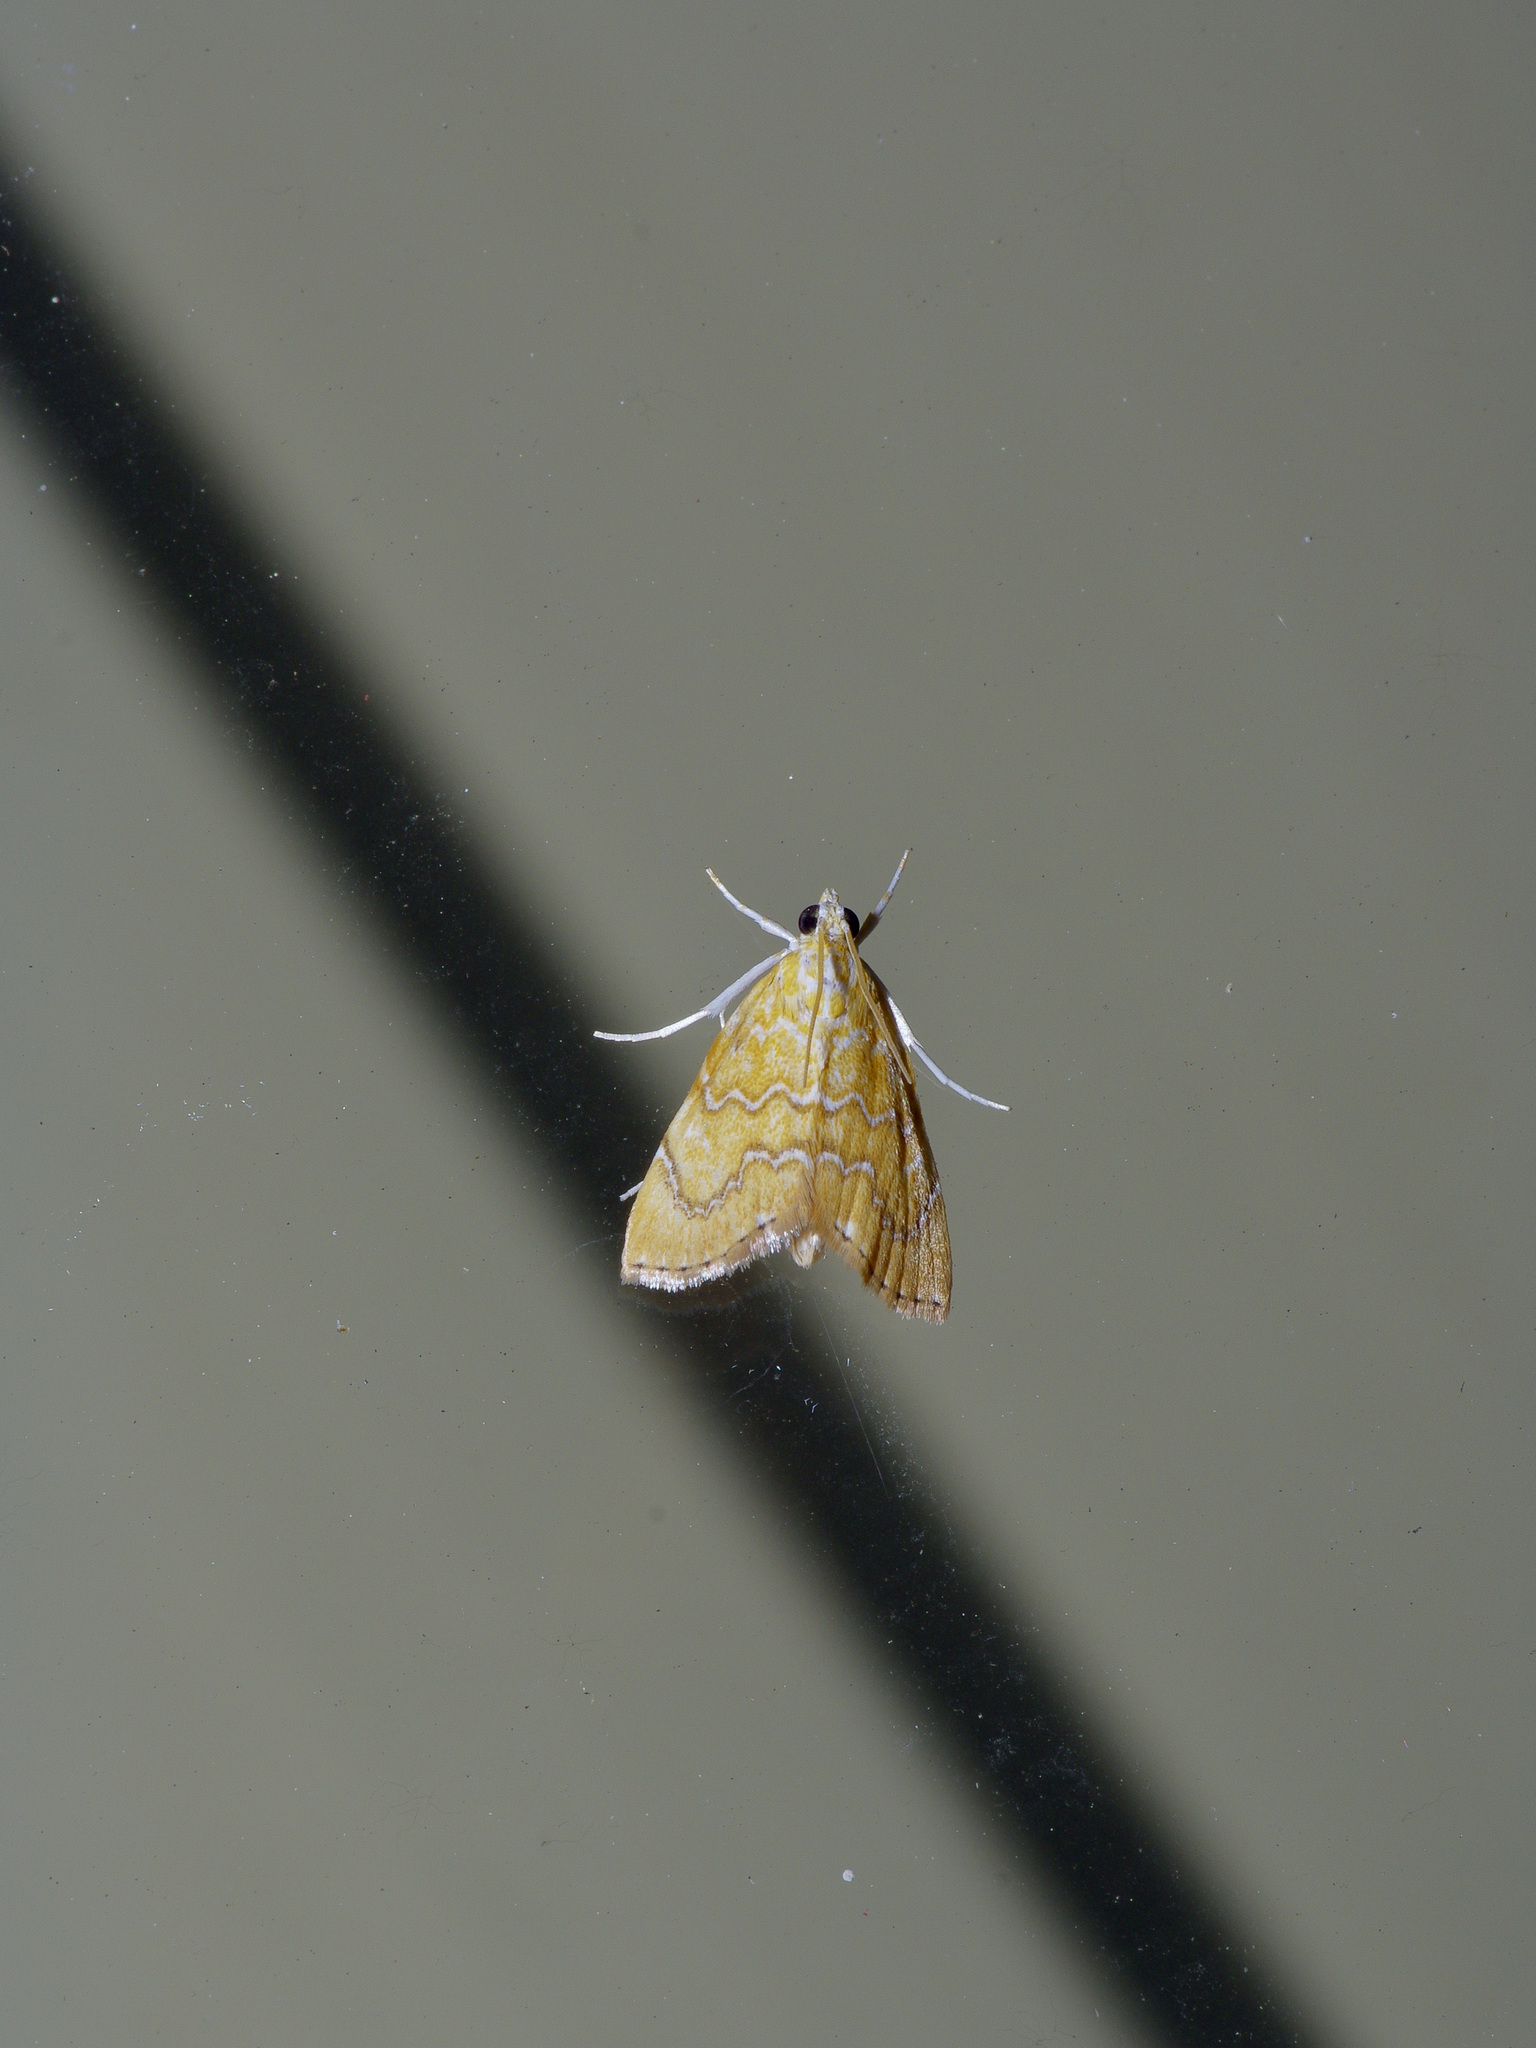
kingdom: Animalia
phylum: Arthropoda
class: Insecta
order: Lepidoptera
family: Crambidae
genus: Glaphyria
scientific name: Glaphyria sesquistrialis
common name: White-roped glaphyria
